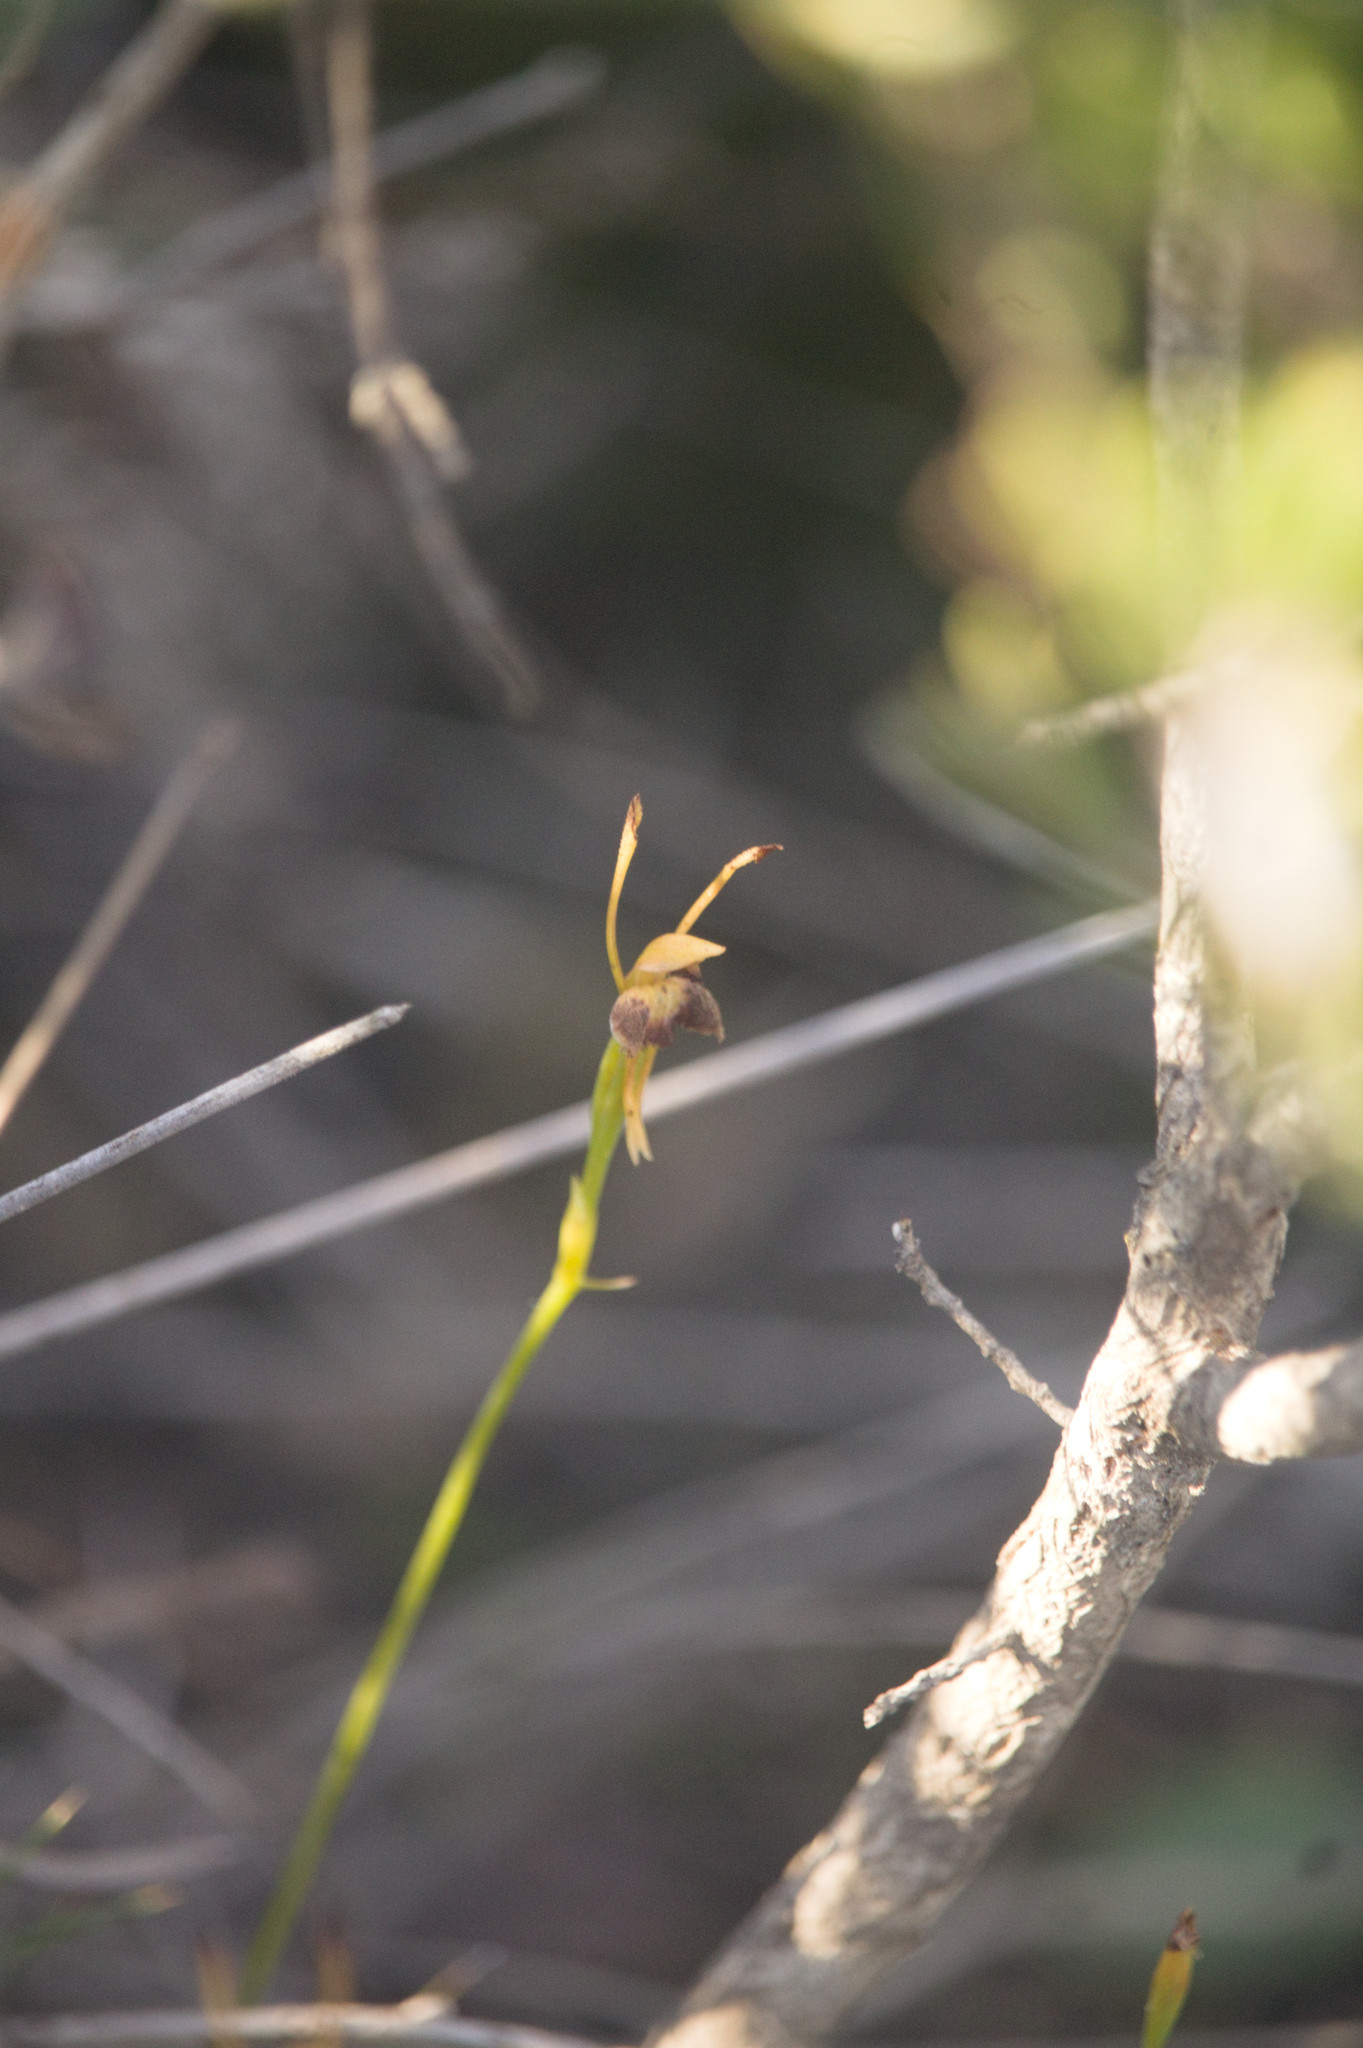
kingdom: Plantae
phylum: Tracheophyta
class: Liliopsida
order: Asparagales
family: Orchidaceae
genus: Leporella
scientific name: Leporella fimbriata
